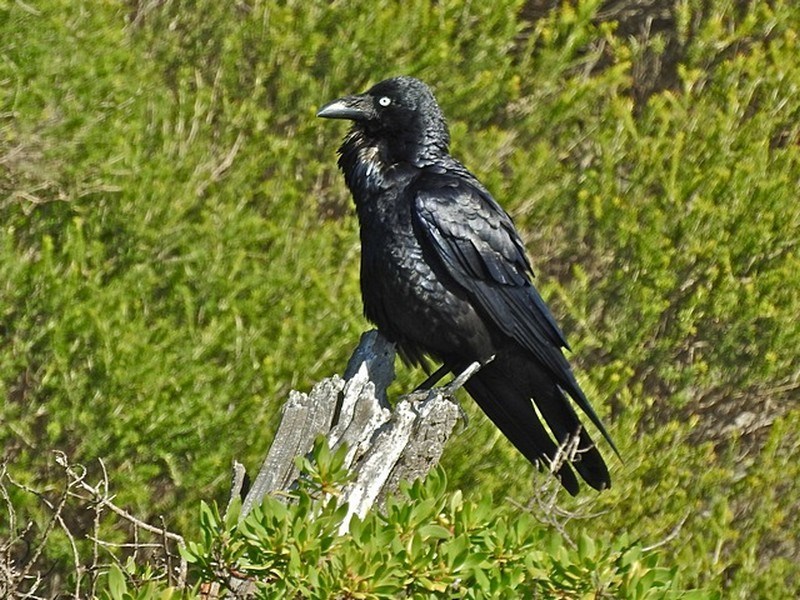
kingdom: Animalia
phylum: Chordata
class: Aves
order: Passeriformes
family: Corvidae
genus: Corvus
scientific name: Corvus coronoides
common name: Australian raven
